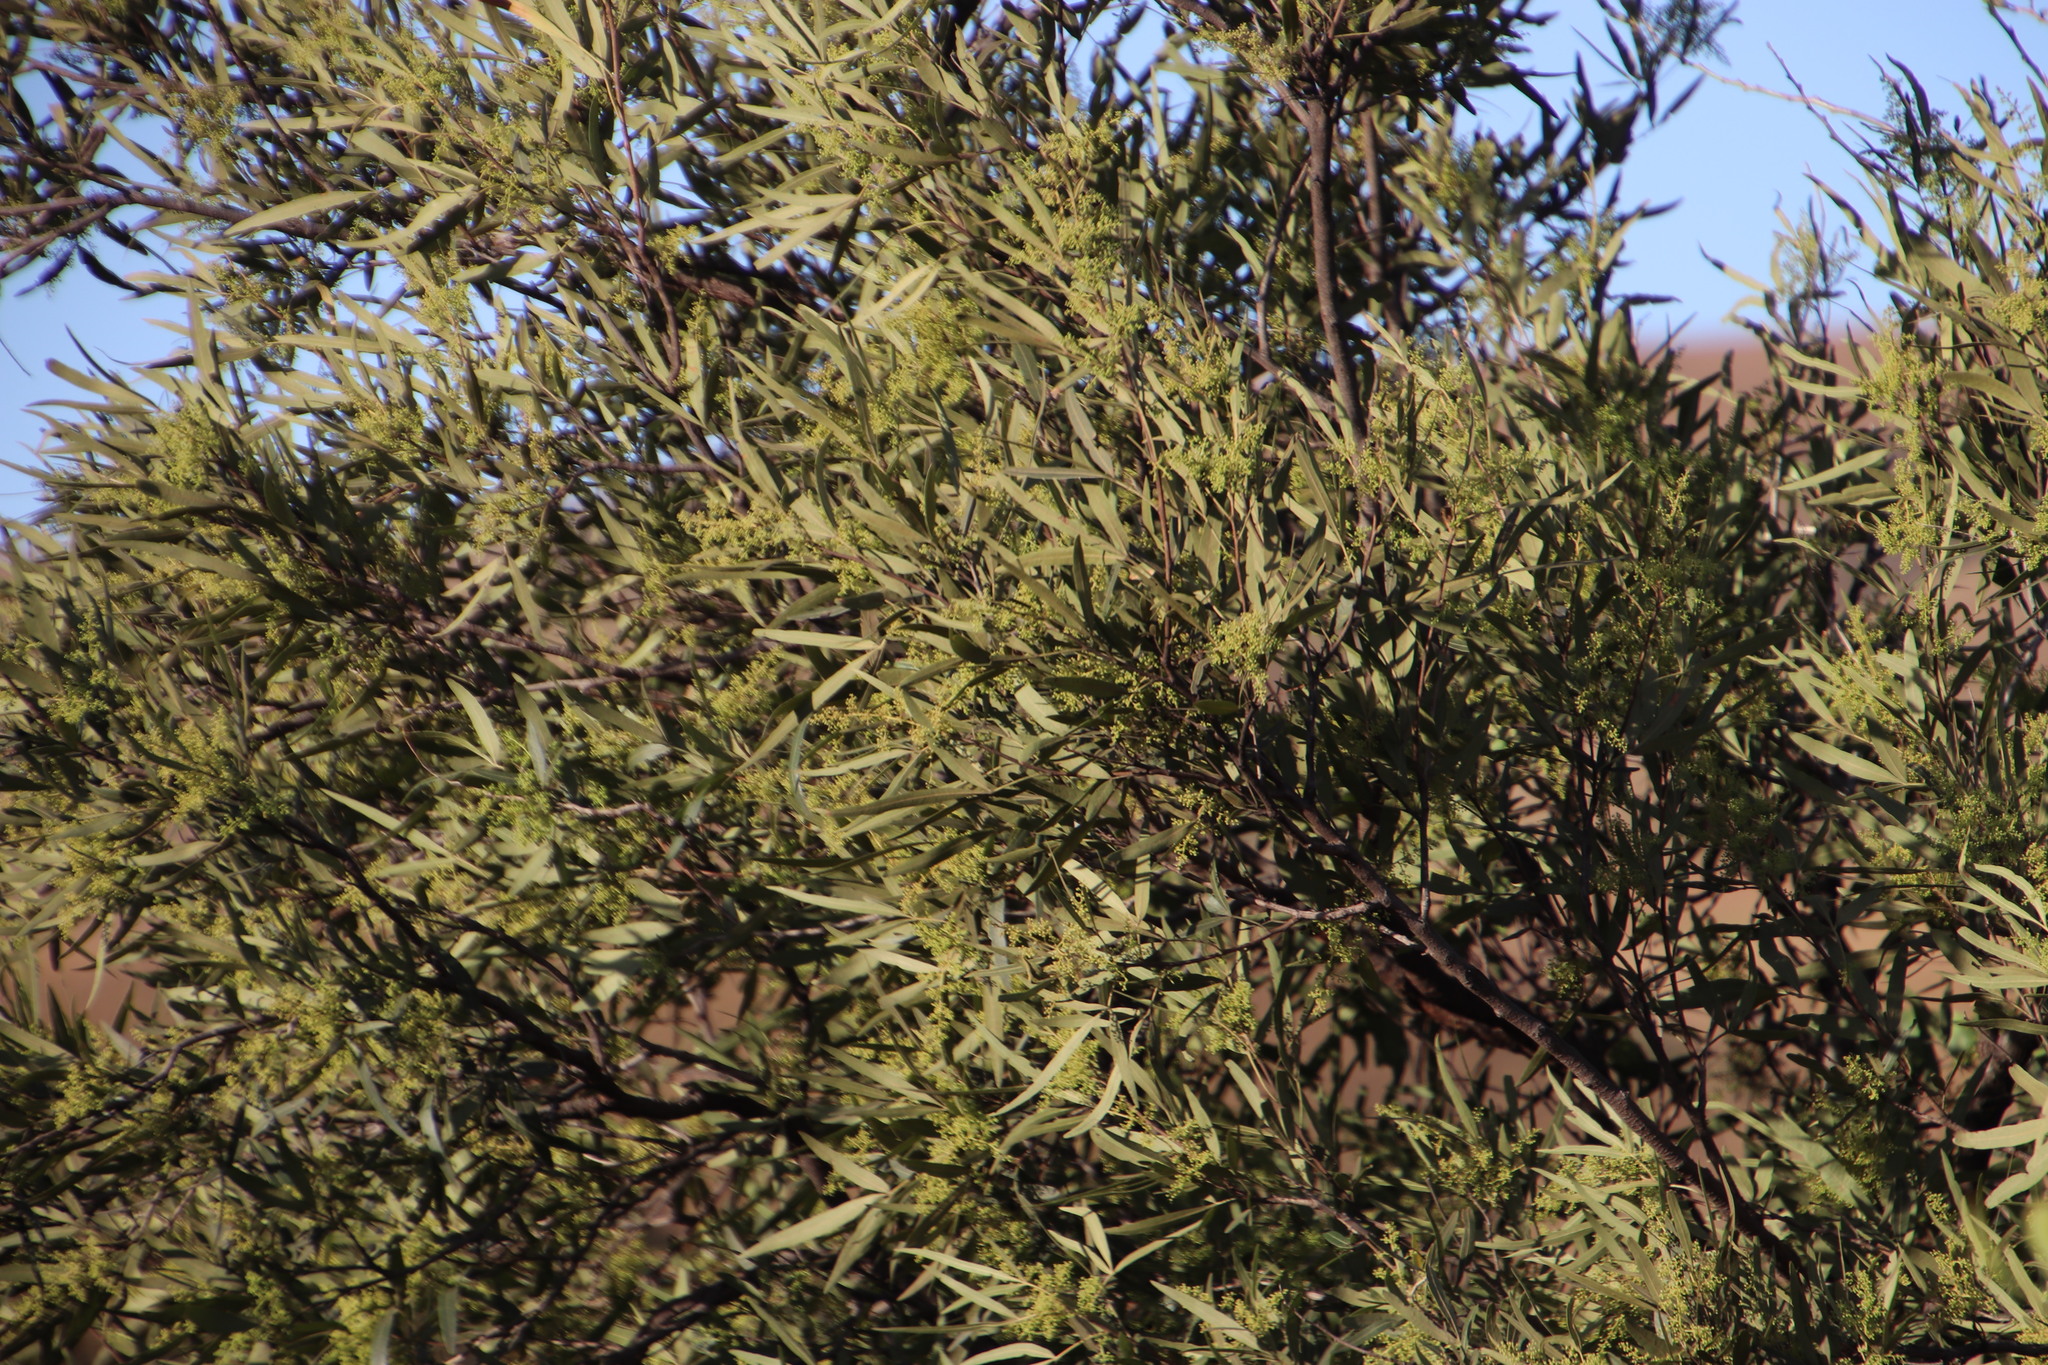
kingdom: Plantae
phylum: Tracheophyta
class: Magnoliopsida
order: Sapindales
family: Anacardiaceae
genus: Searsia
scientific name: Searsia lancea
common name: Cashew
